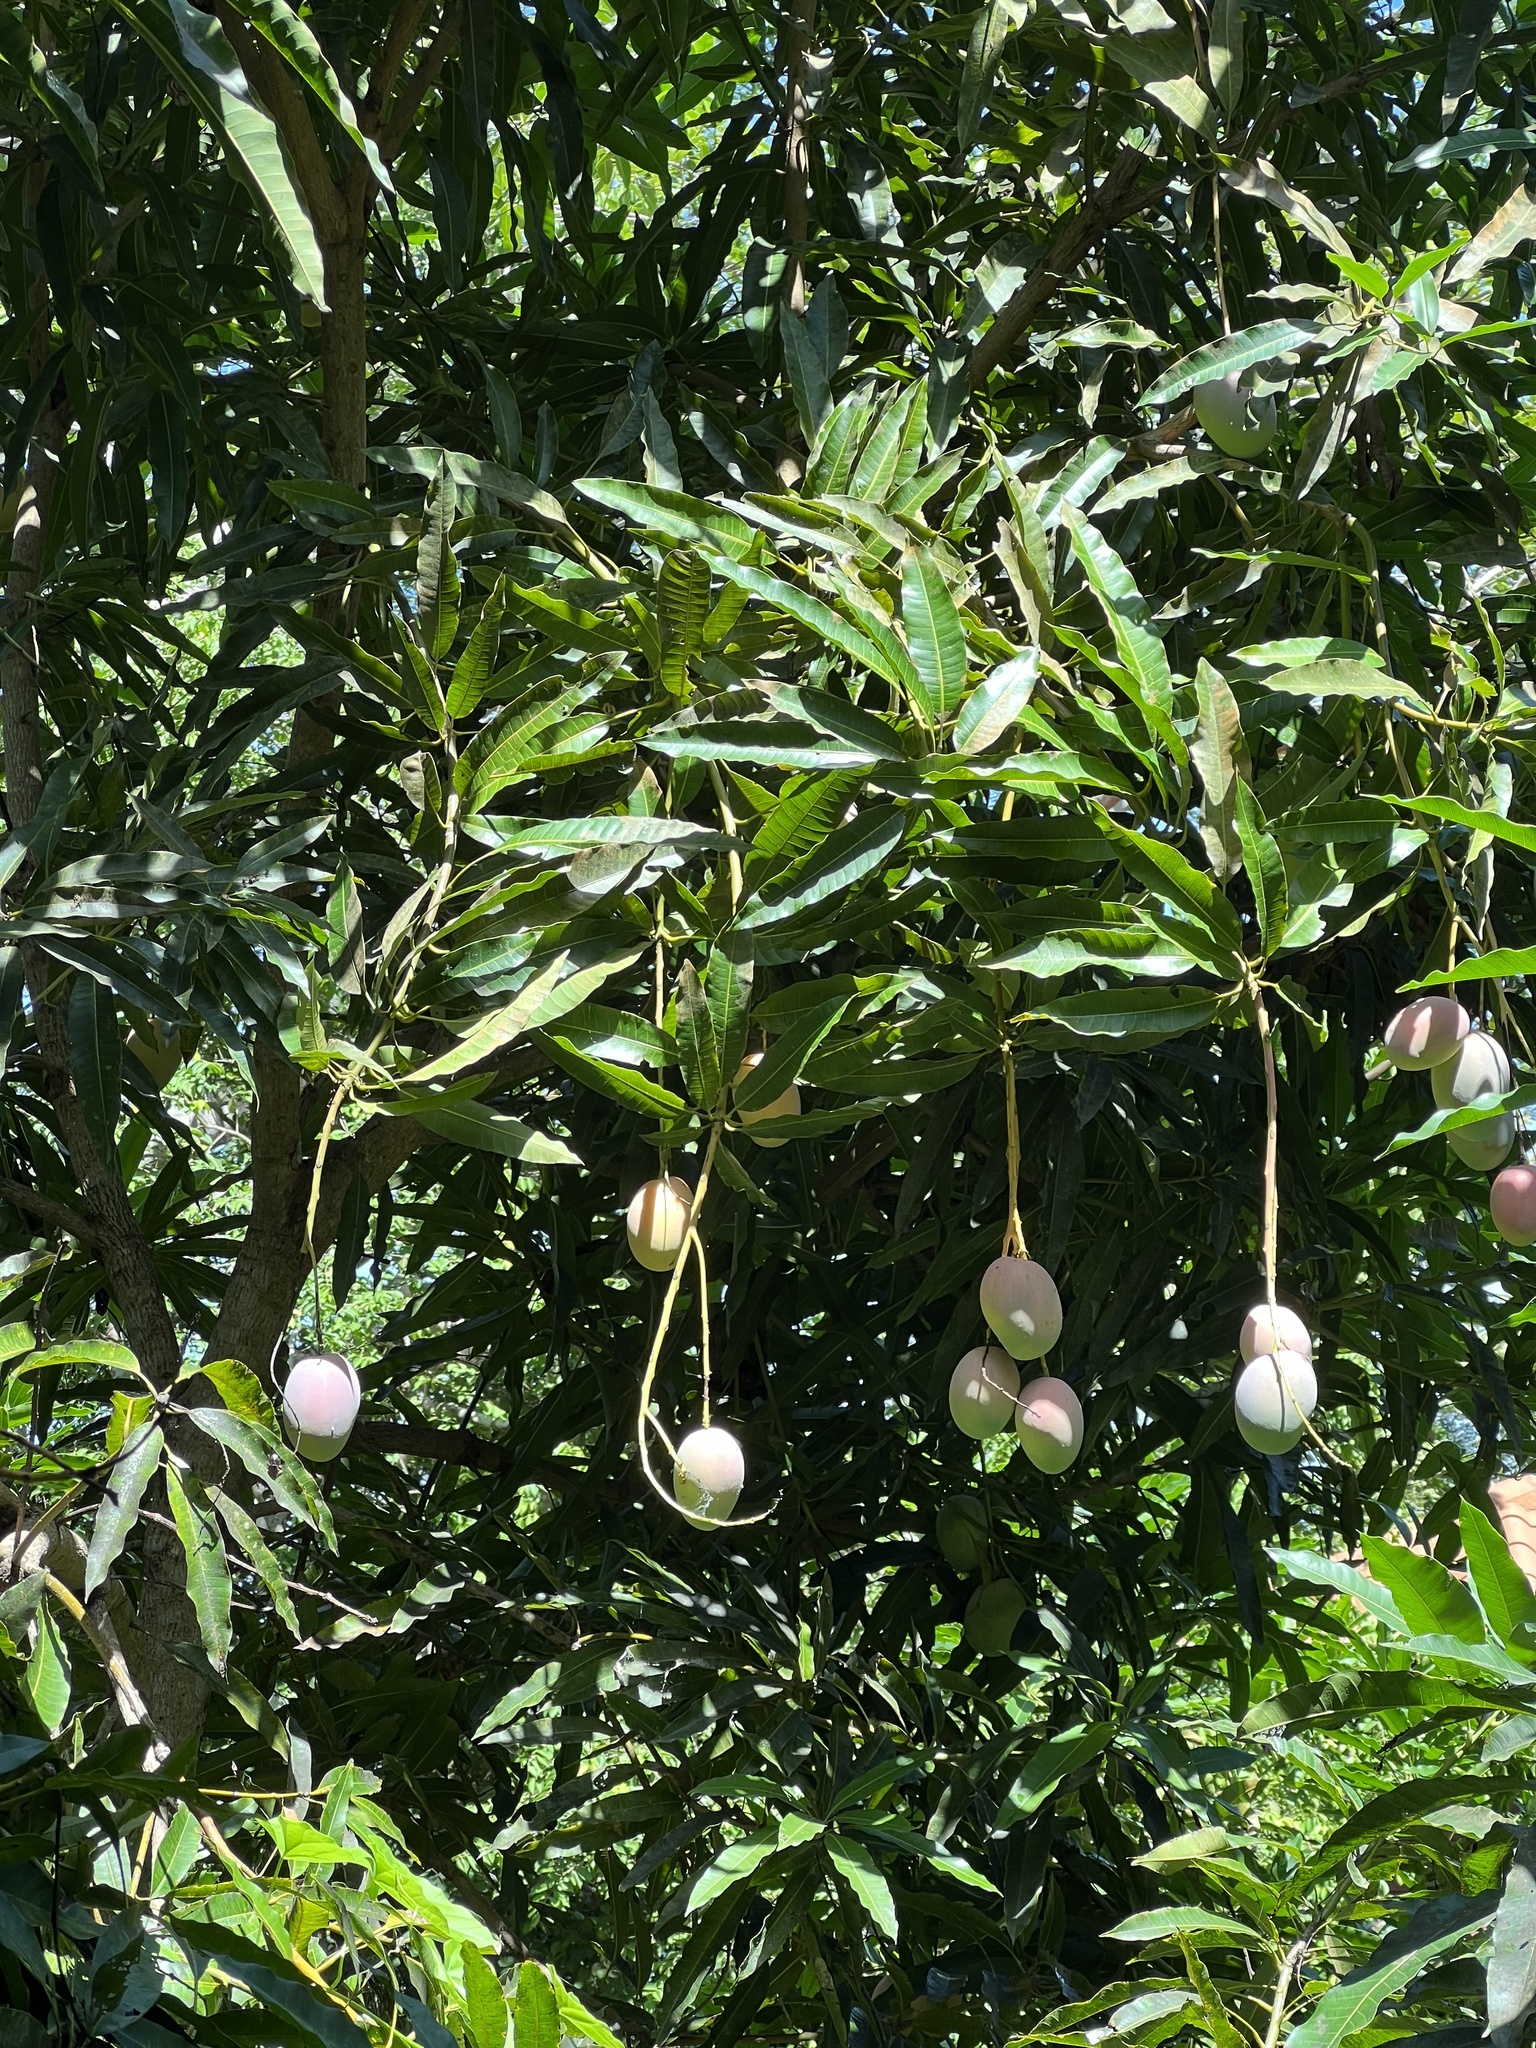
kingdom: Plantae
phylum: Tracheophyta
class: Magnoliopsida
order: Sapindales
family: Anacardiaceae
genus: Mangifera
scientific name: Mangifera indica
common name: Mango
